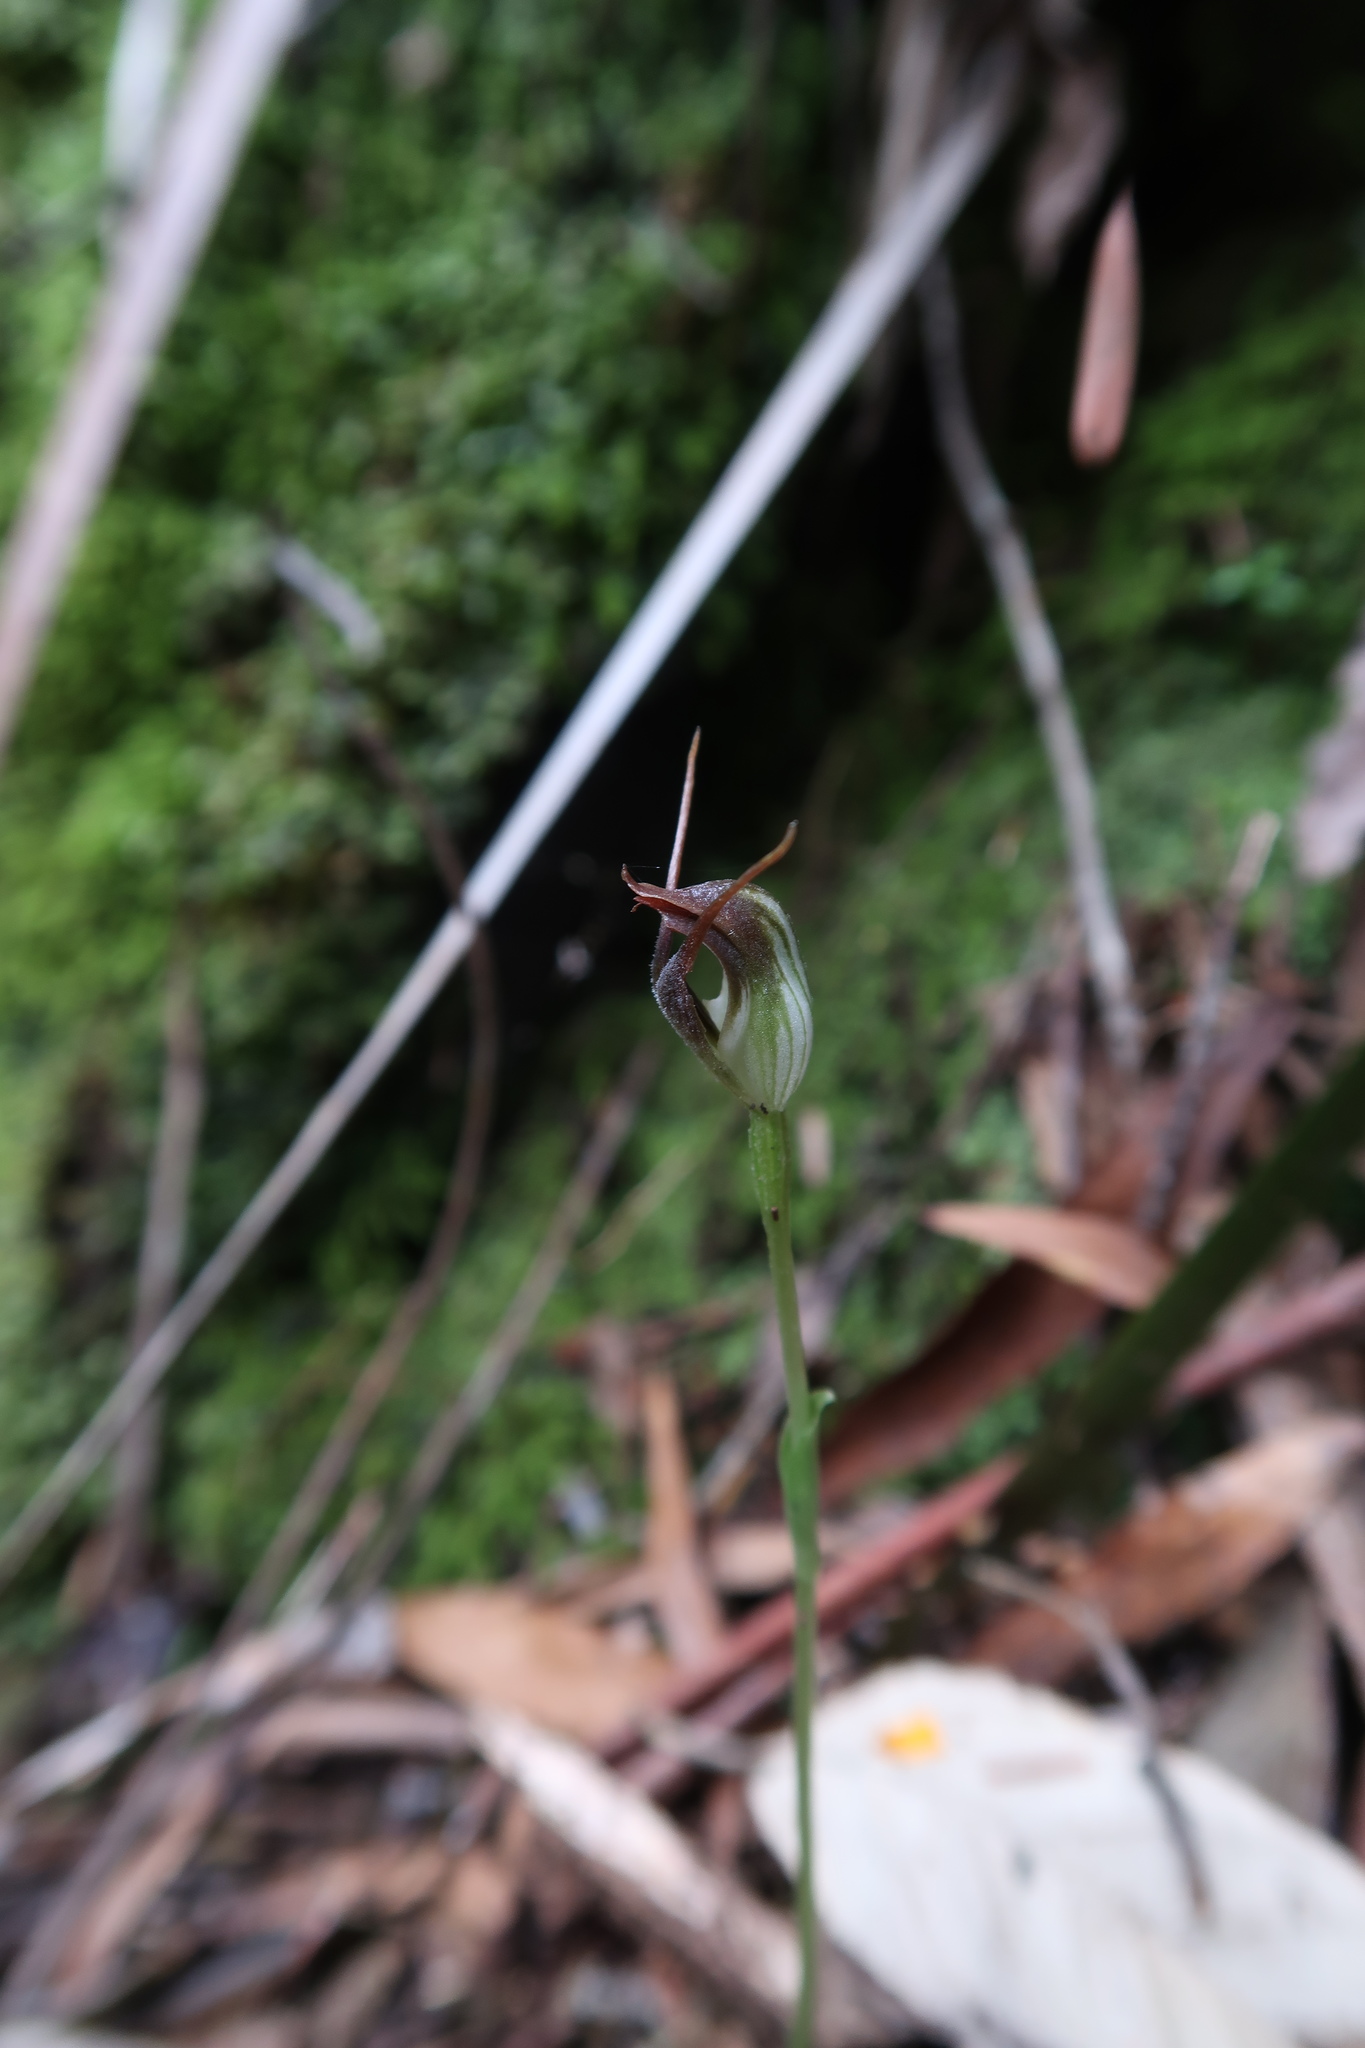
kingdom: Plantae
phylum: Tracheophyta
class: Liliopsida
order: Asparagales
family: Orchidaceae
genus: Pterostylis
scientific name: Pterostylis pedunculata
